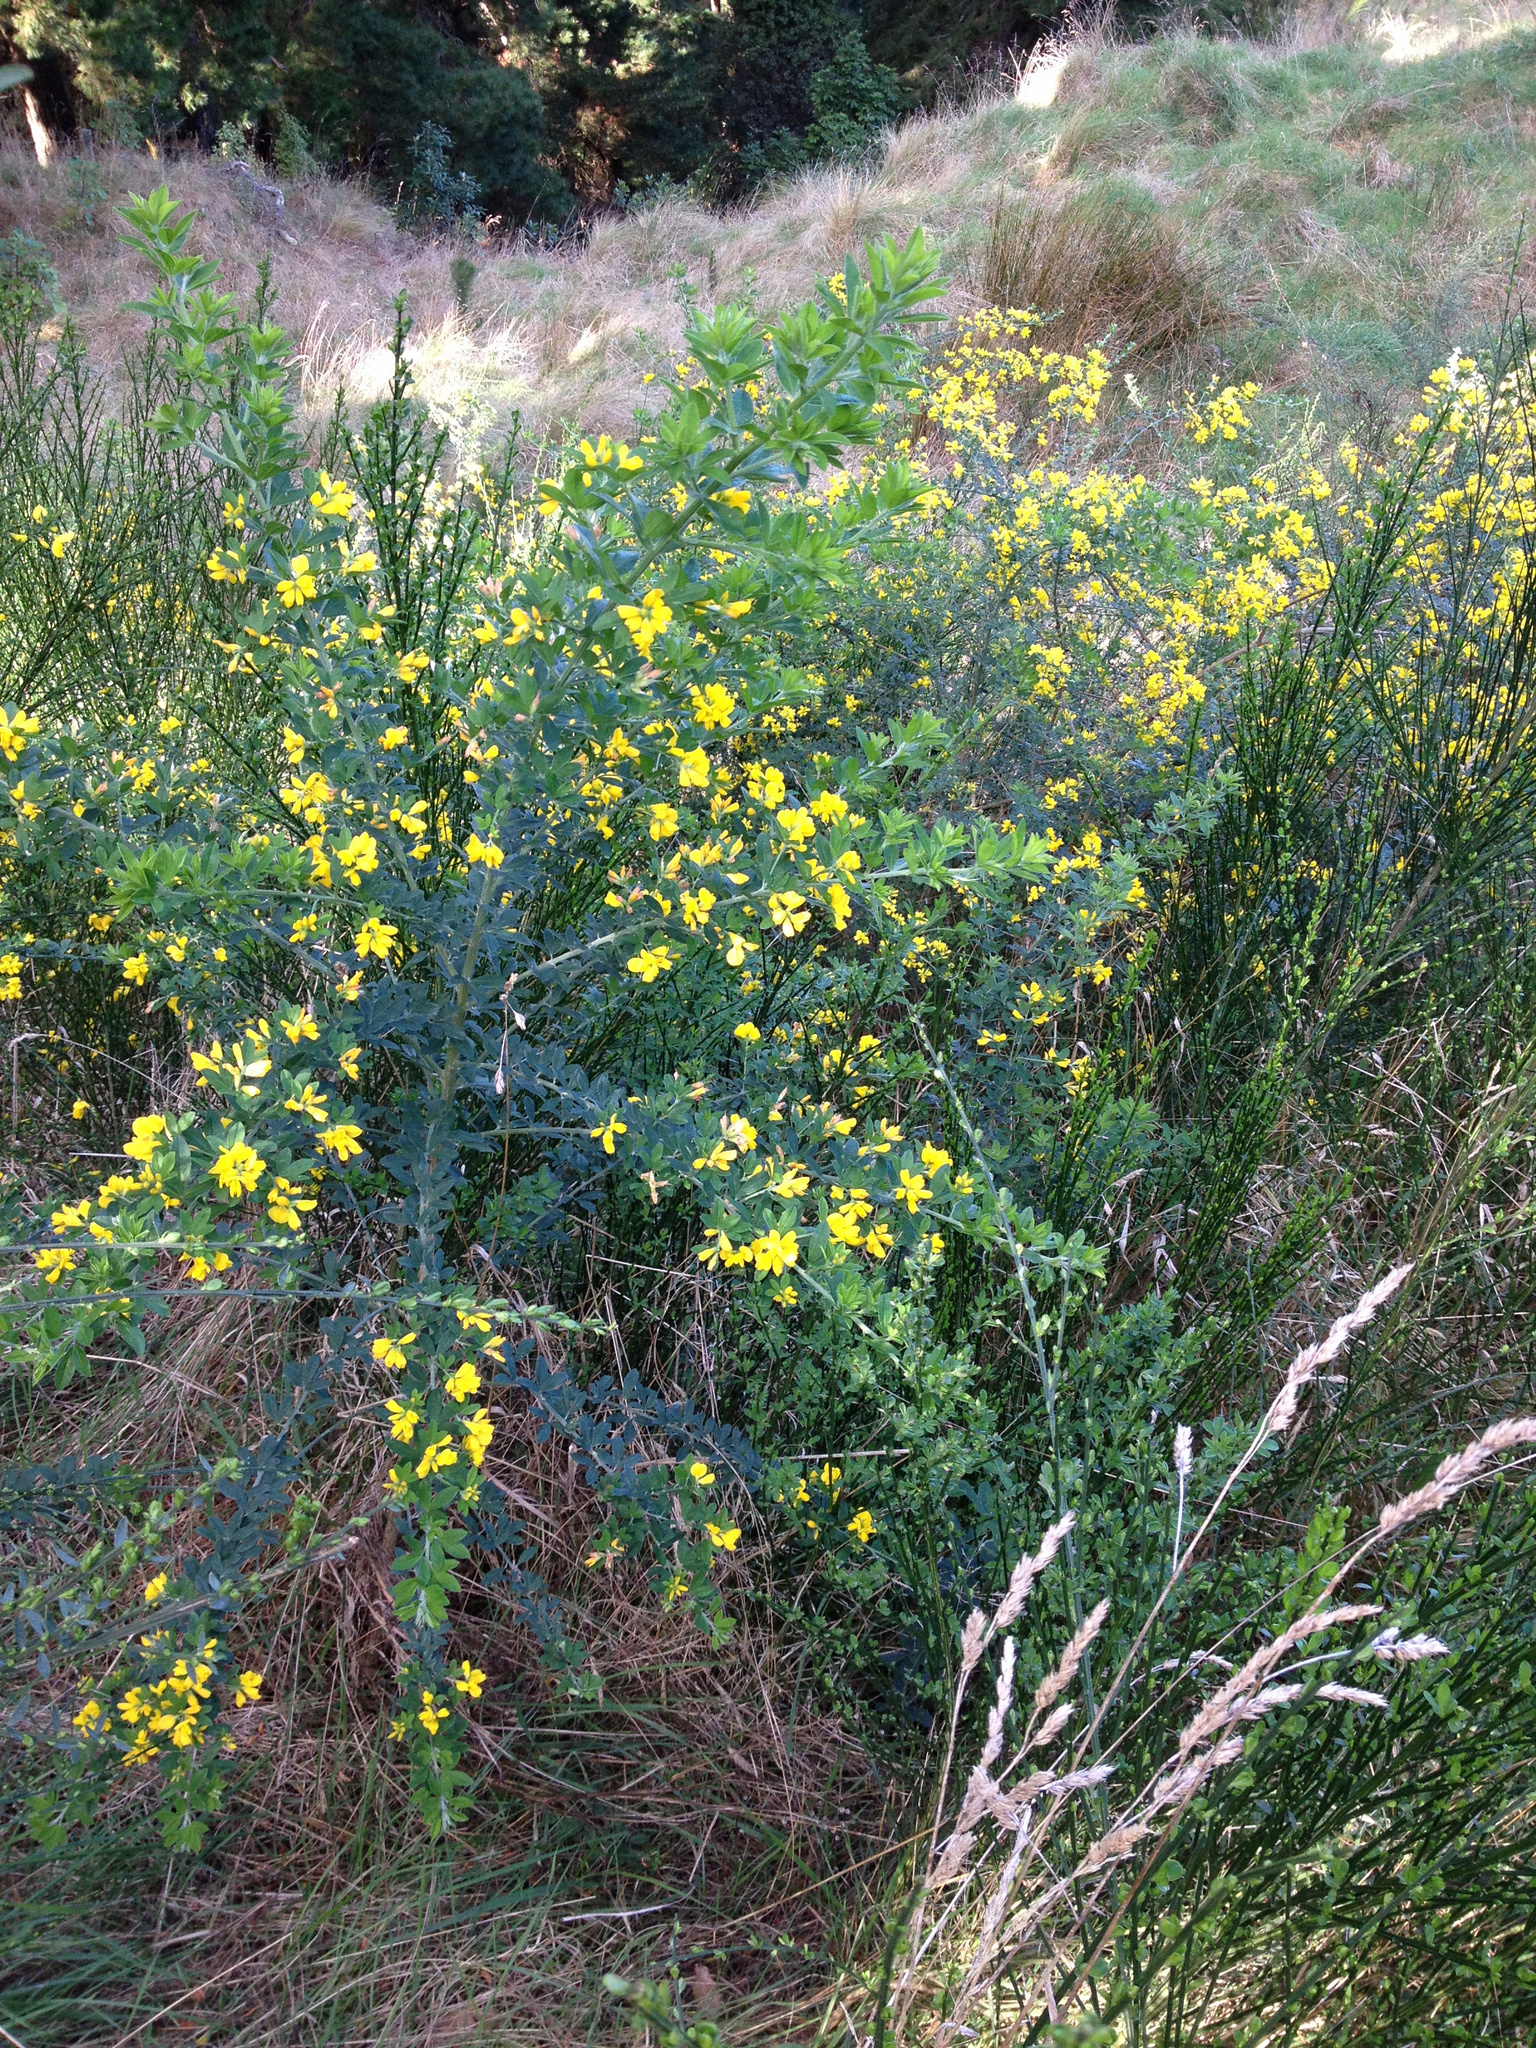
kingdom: Plantae
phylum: Tracheophyta
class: Magnoliopsida
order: Fabales
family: Fabaceae
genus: Genista
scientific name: Genista monspessulana
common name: Montpellier broom
